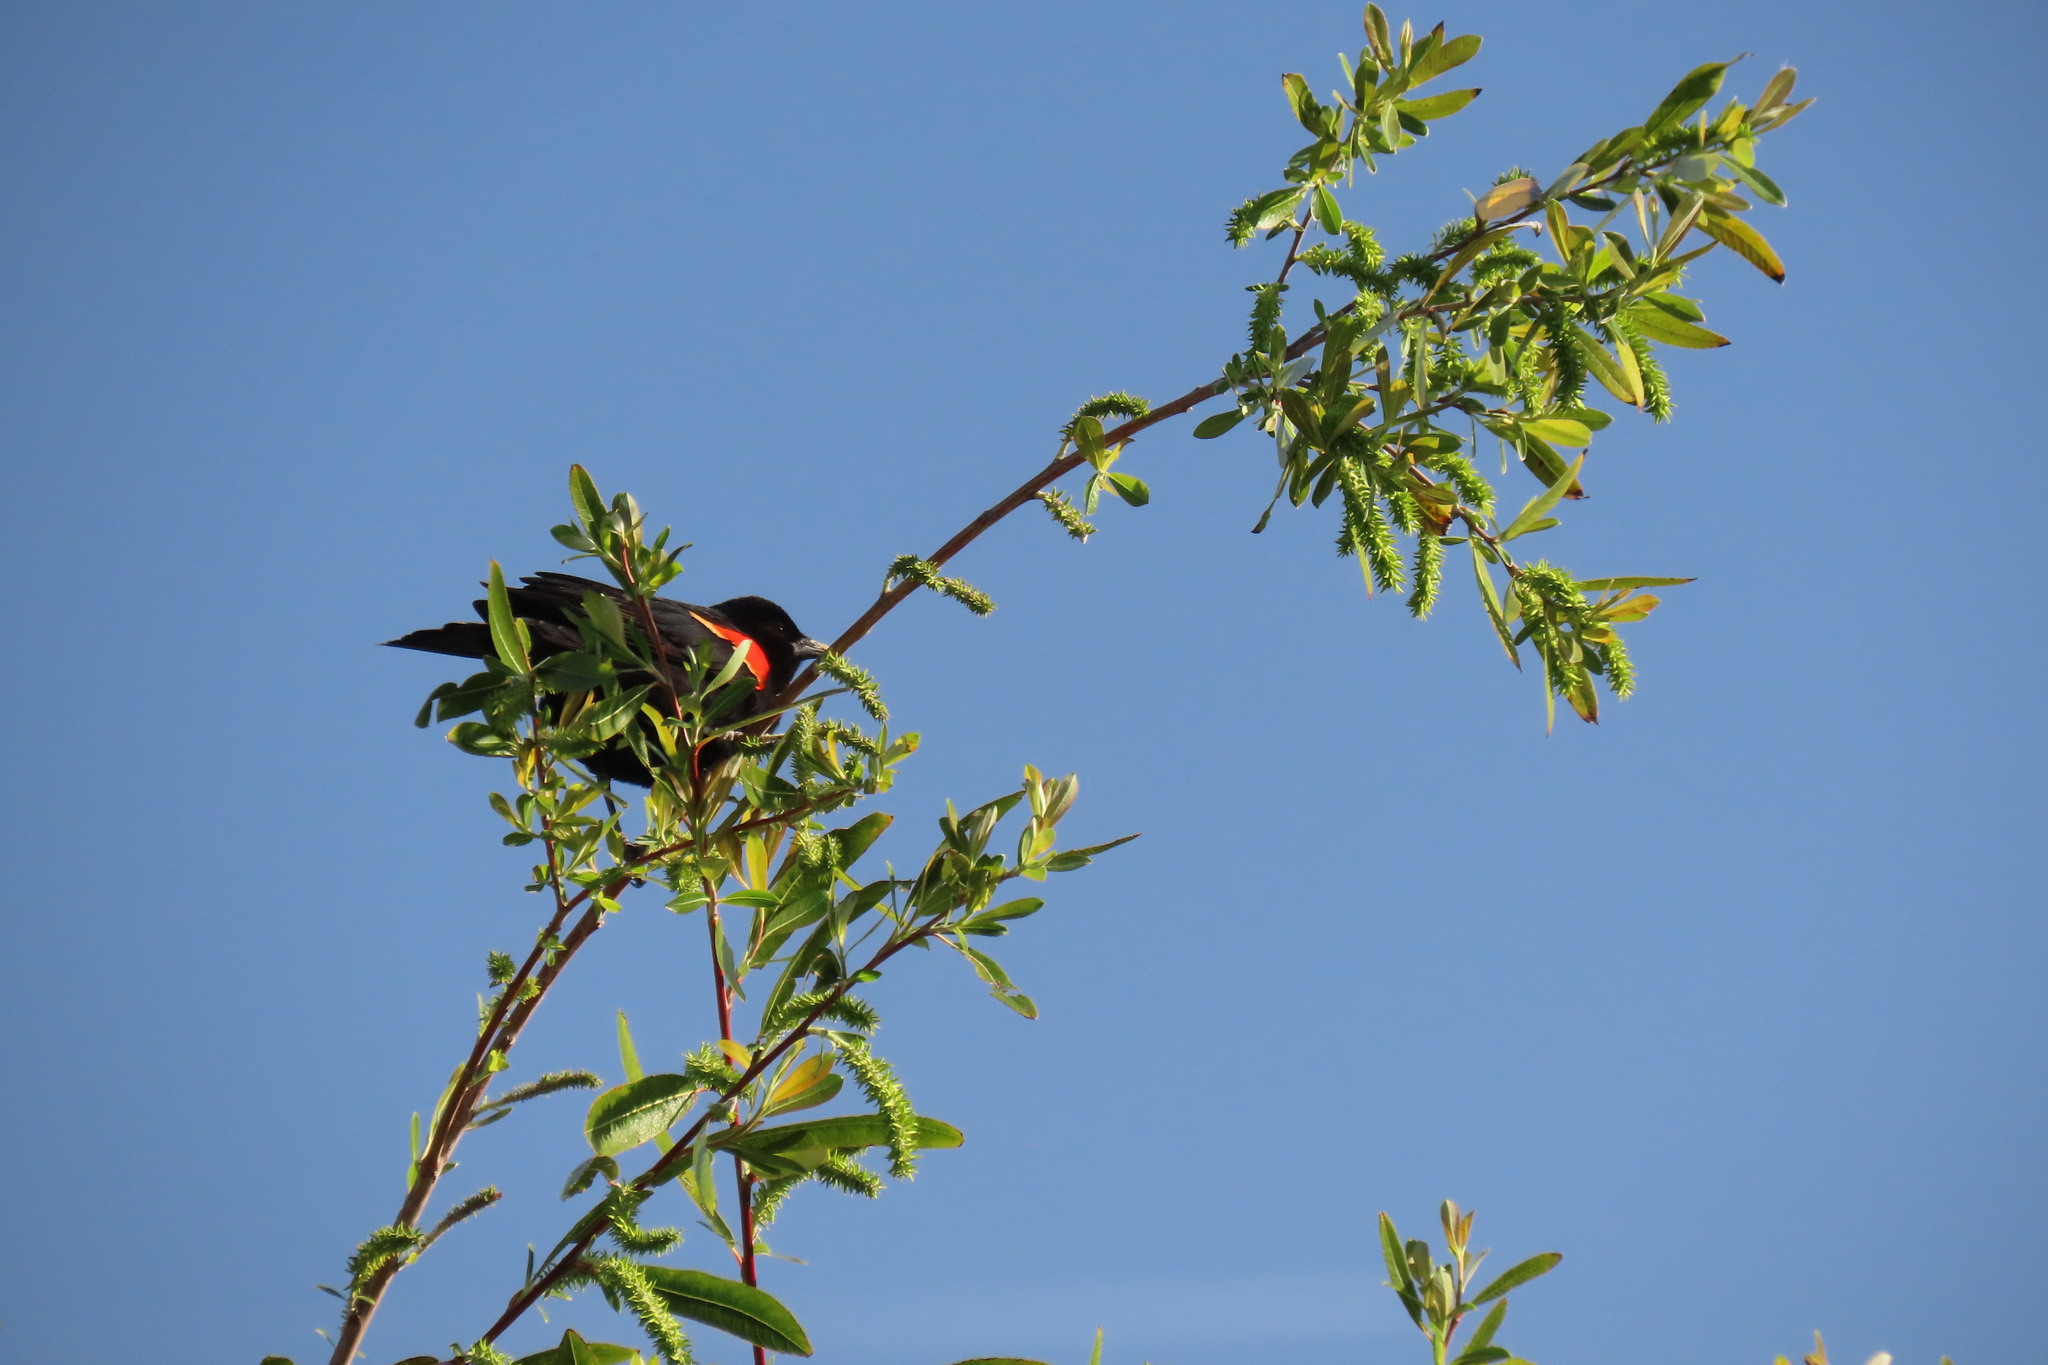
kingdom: Animalia
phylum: Chordata
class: Aves
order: Passeriformes
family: Icteridae
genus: Agelaius
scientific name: Agelaius phoeniceus
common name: Red-winged blackbird
